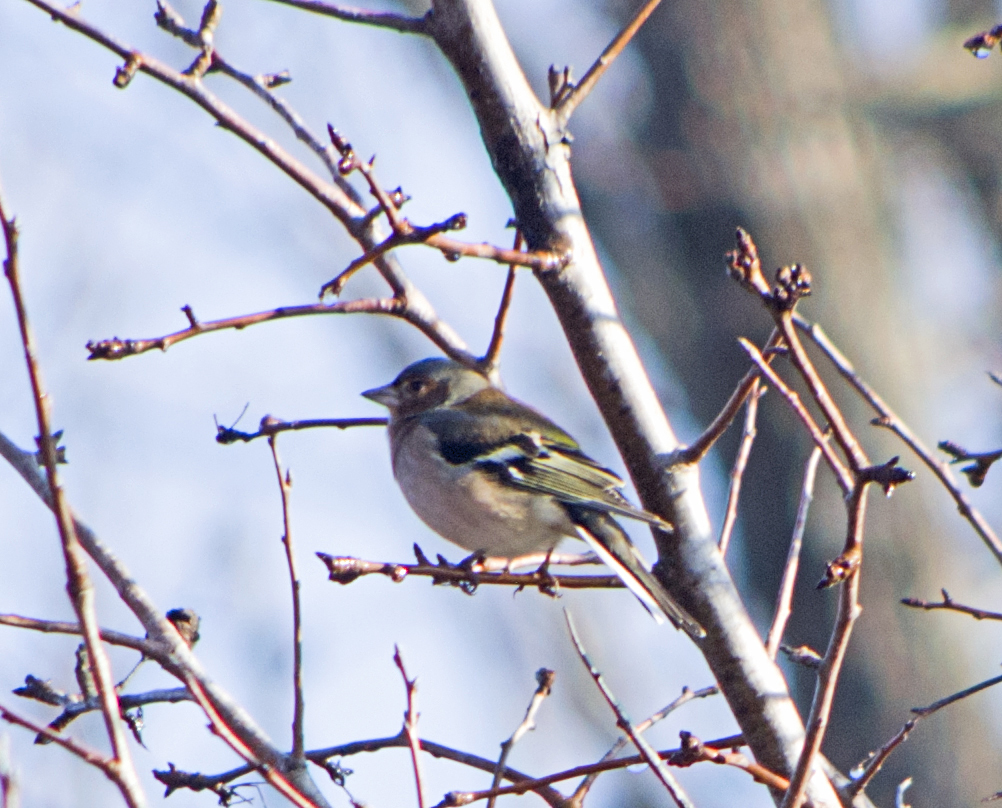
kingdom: Animalia
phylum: Chordata
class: Aves
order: Passeriformes
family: Fringillidae
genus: Fringilla
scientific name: Fringilla coelebs
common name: Common chaffinch
